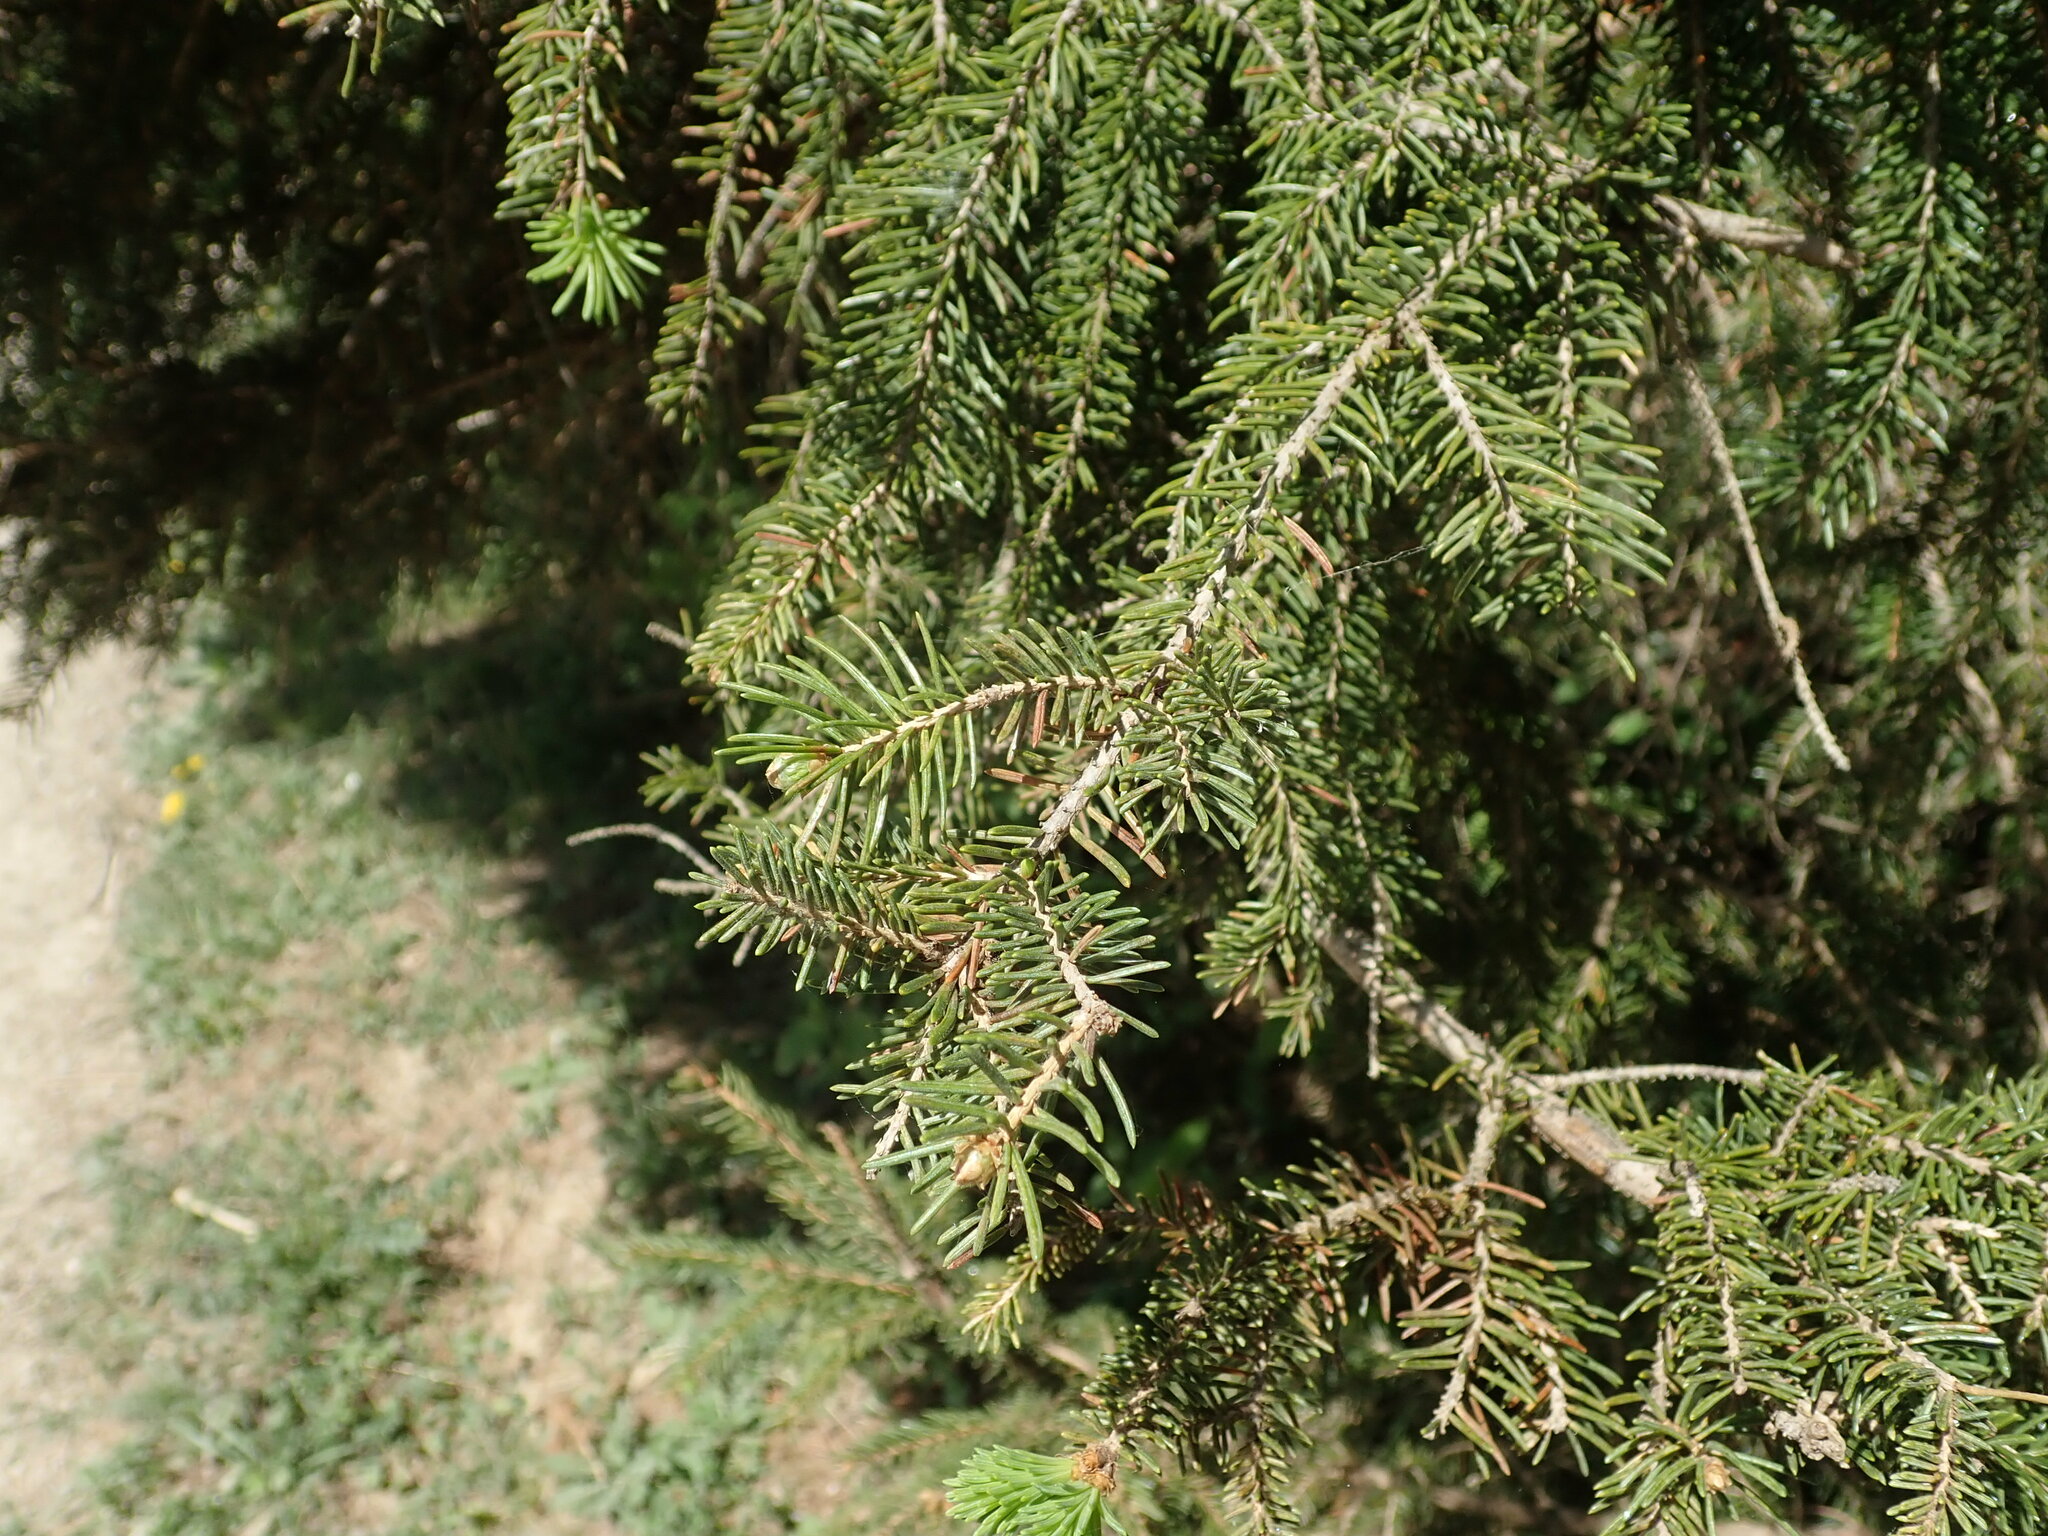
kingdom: Plantae
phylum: Tracheophyta
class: Pinopsida
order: Pinales
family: Pinaceae
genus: Picea
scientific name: Picea abies
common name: Norway spruce
